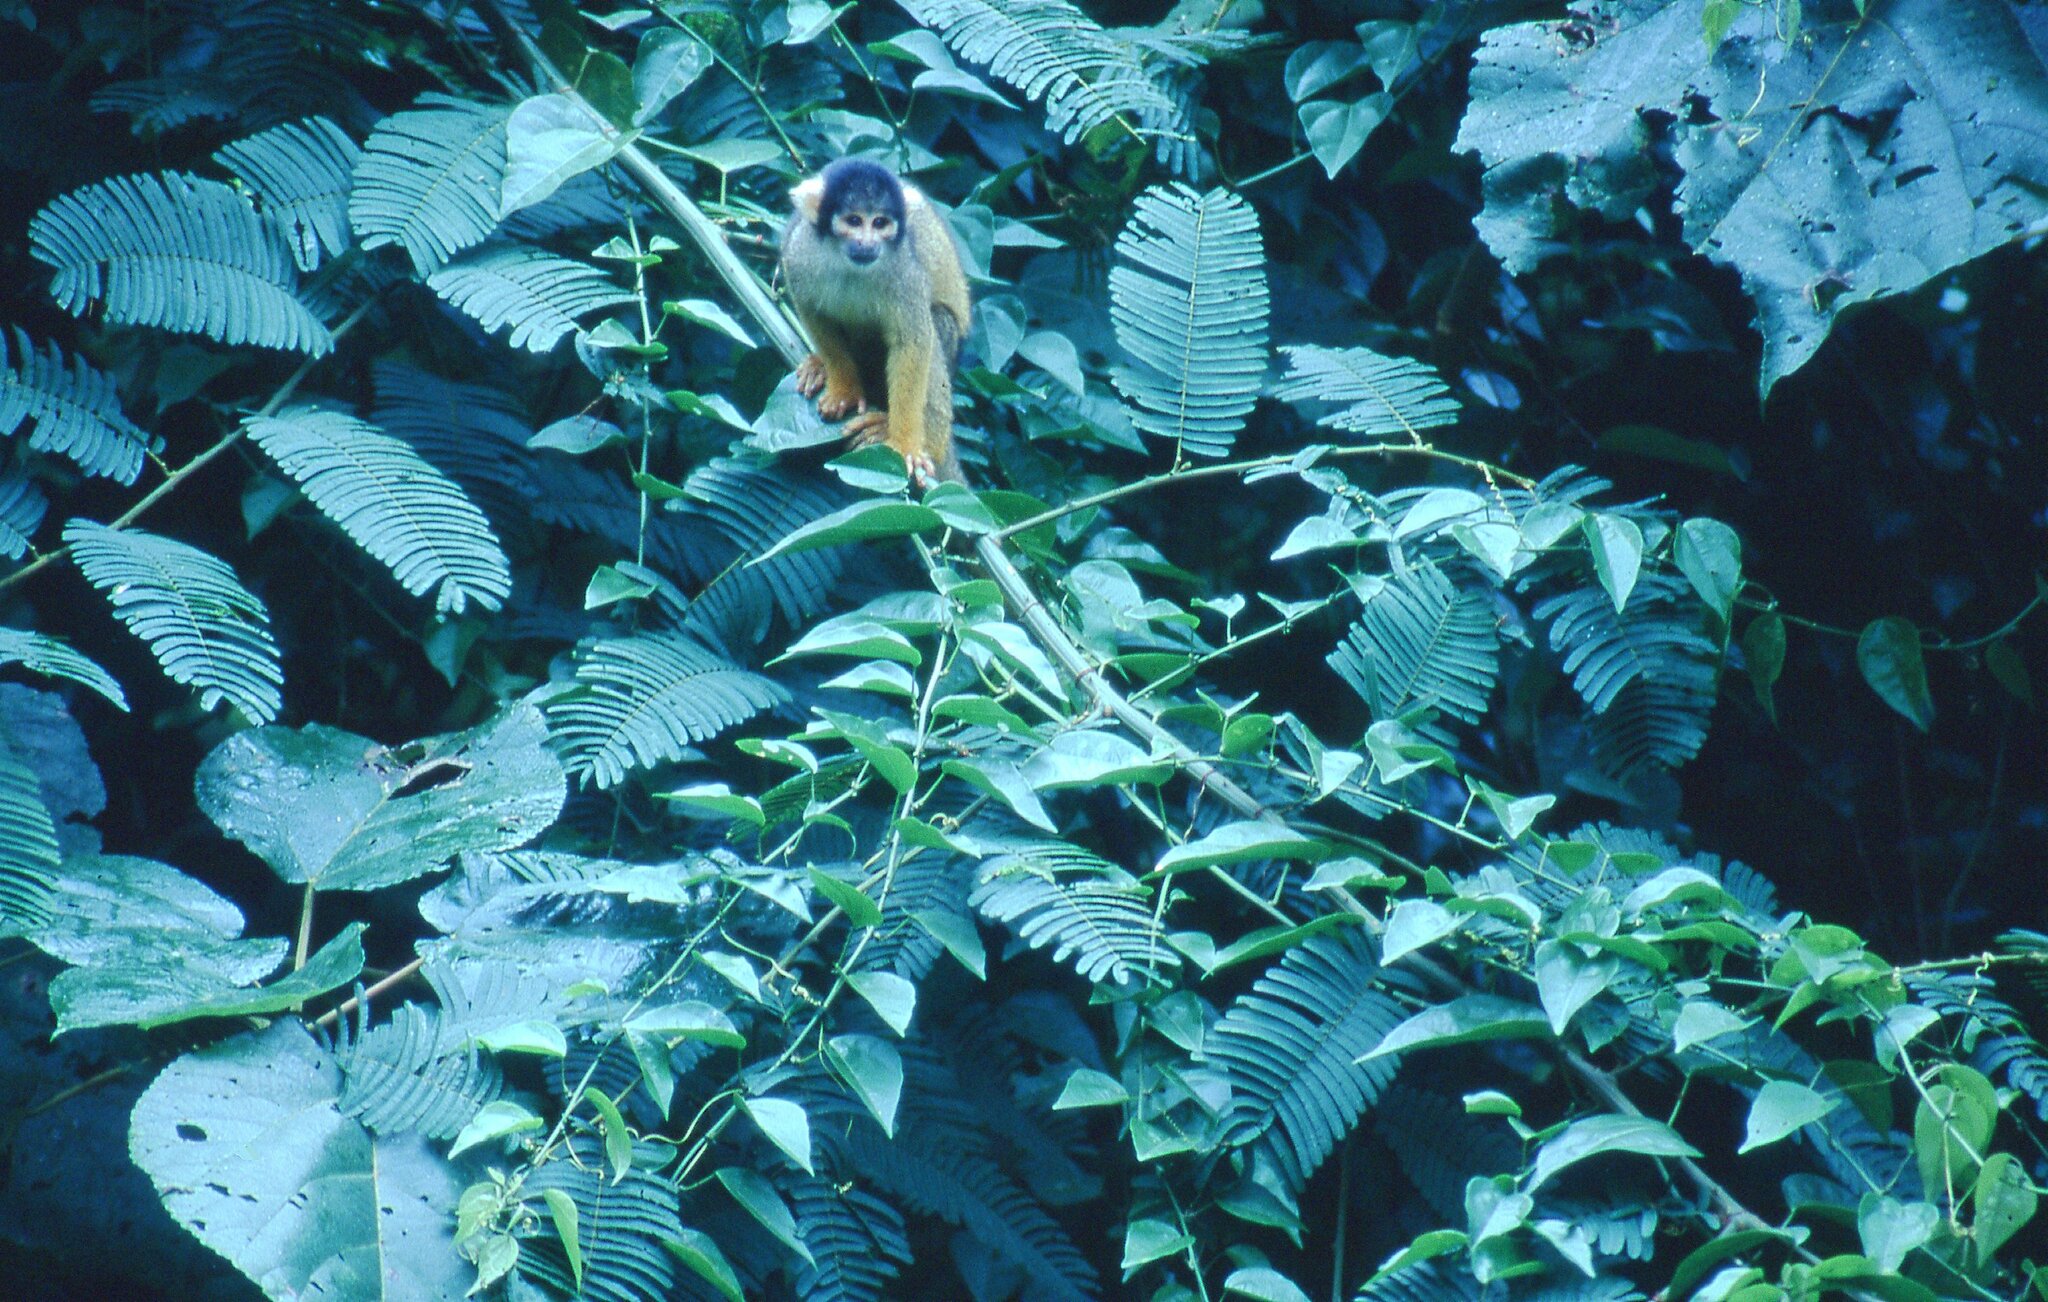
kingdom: Animalia
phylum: Chordata
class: Mammalia
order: Primates
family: Cebidae
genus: Saimiri
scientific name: Saimiri boliviensis
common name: Black-capped squirrel monkey
